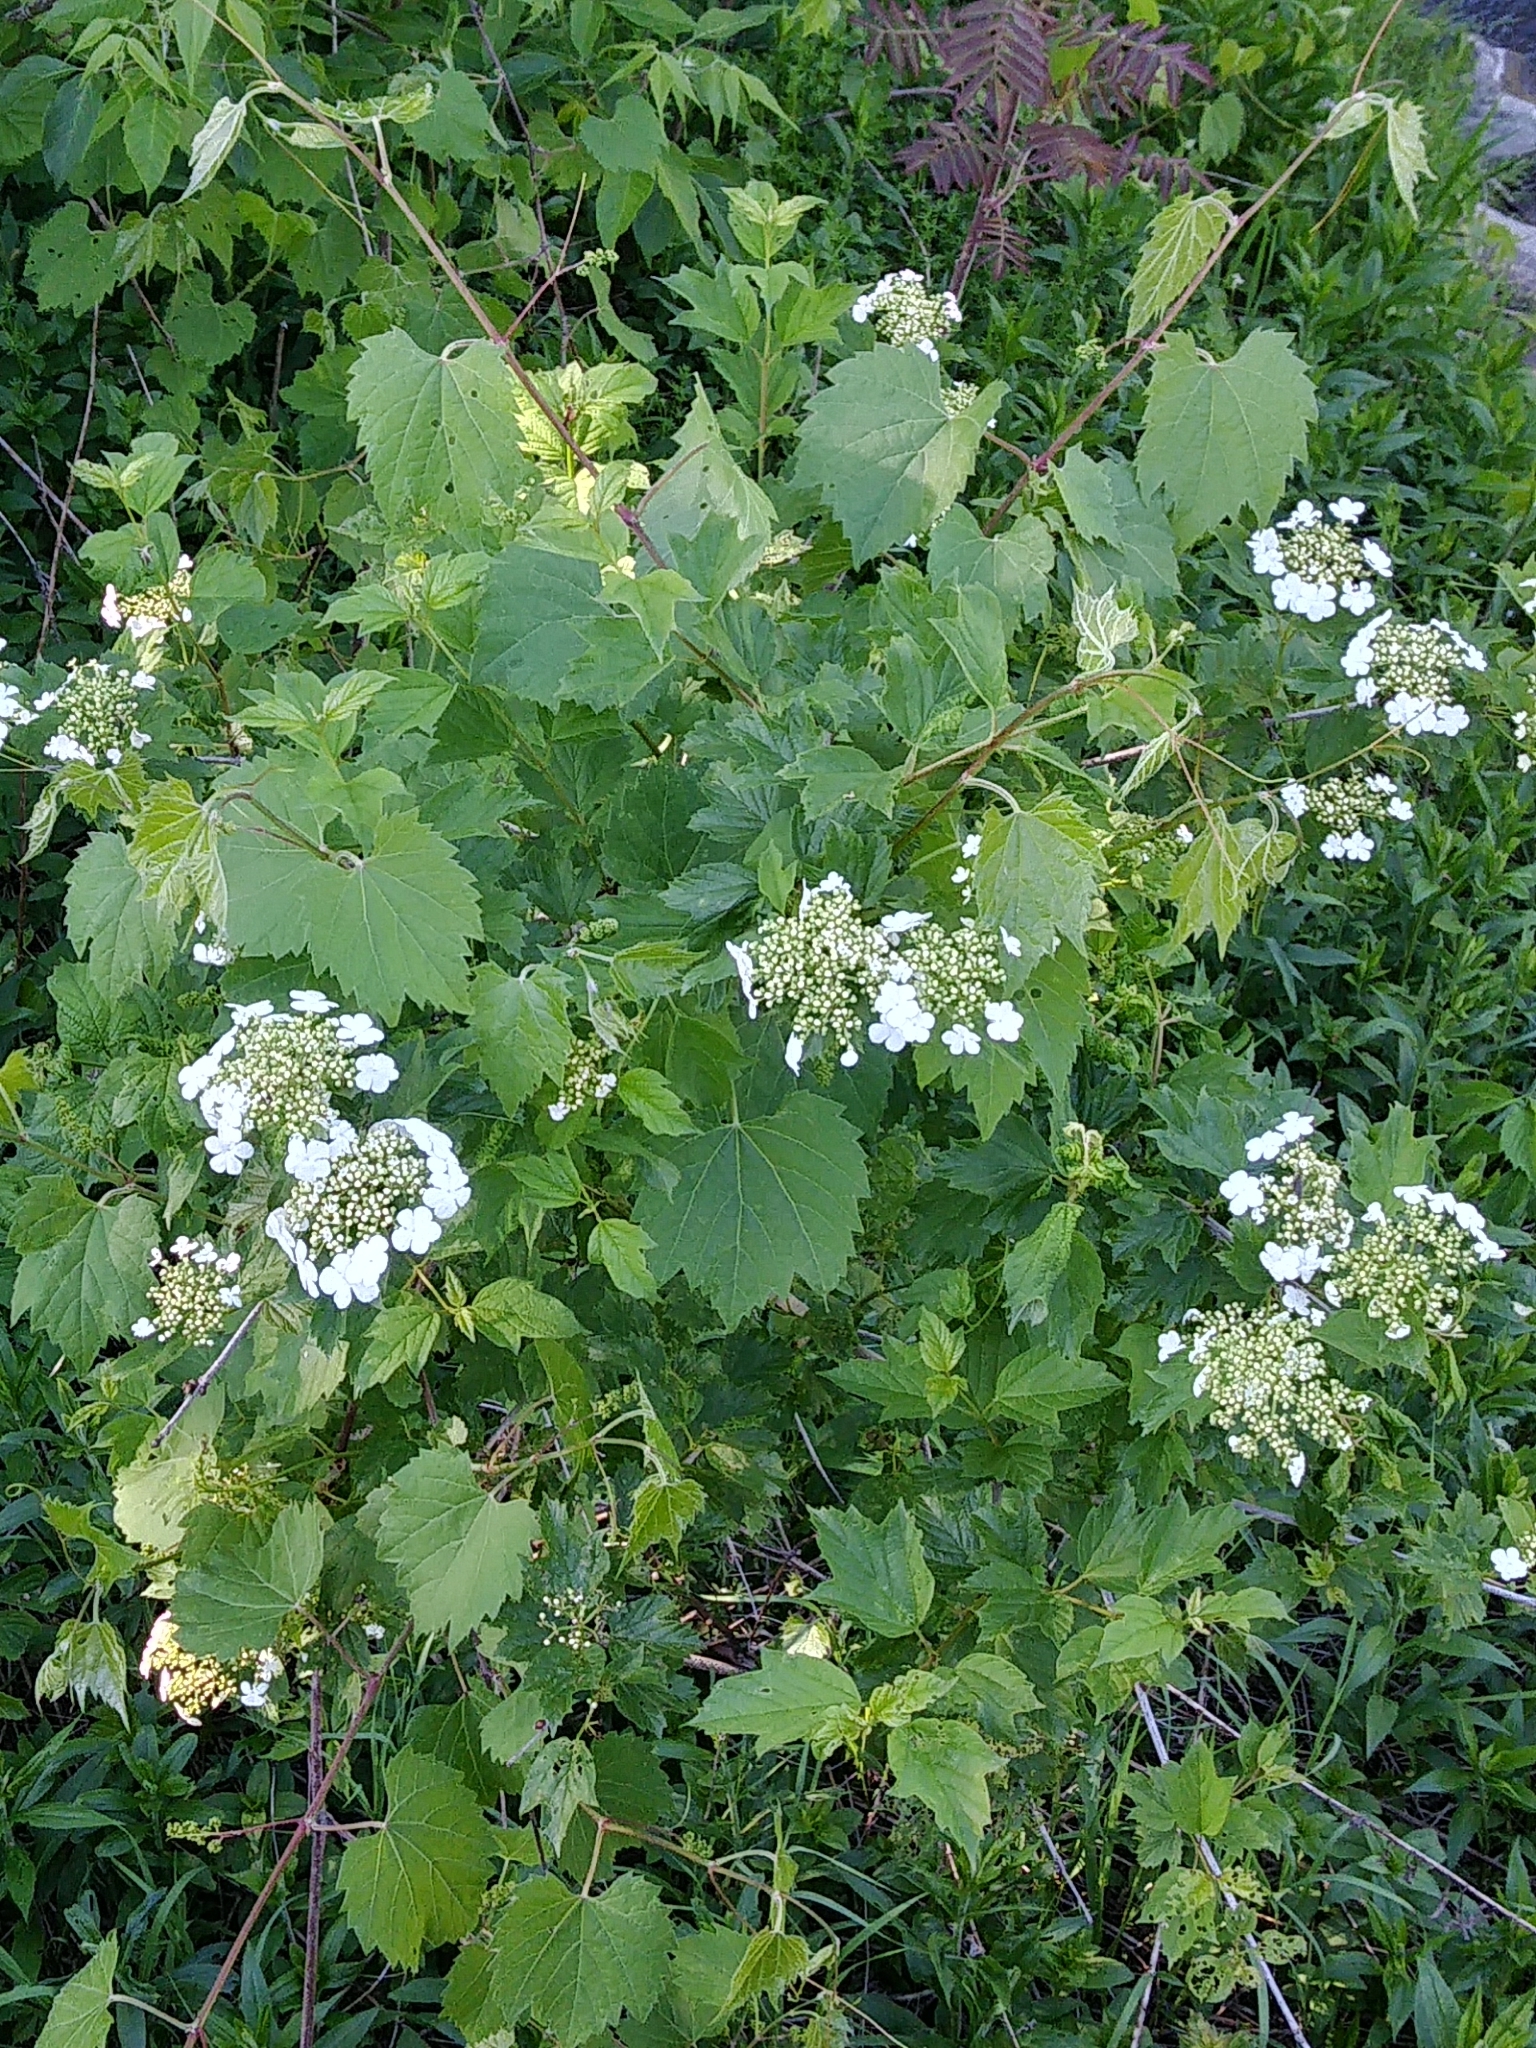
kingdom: Plantae
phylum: Tracheophyta
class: Magnoliopsida
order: Dipsacales
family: Viburnaceae
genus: Viburnum
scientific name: Viburnum opulus
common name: Guelder-rose
